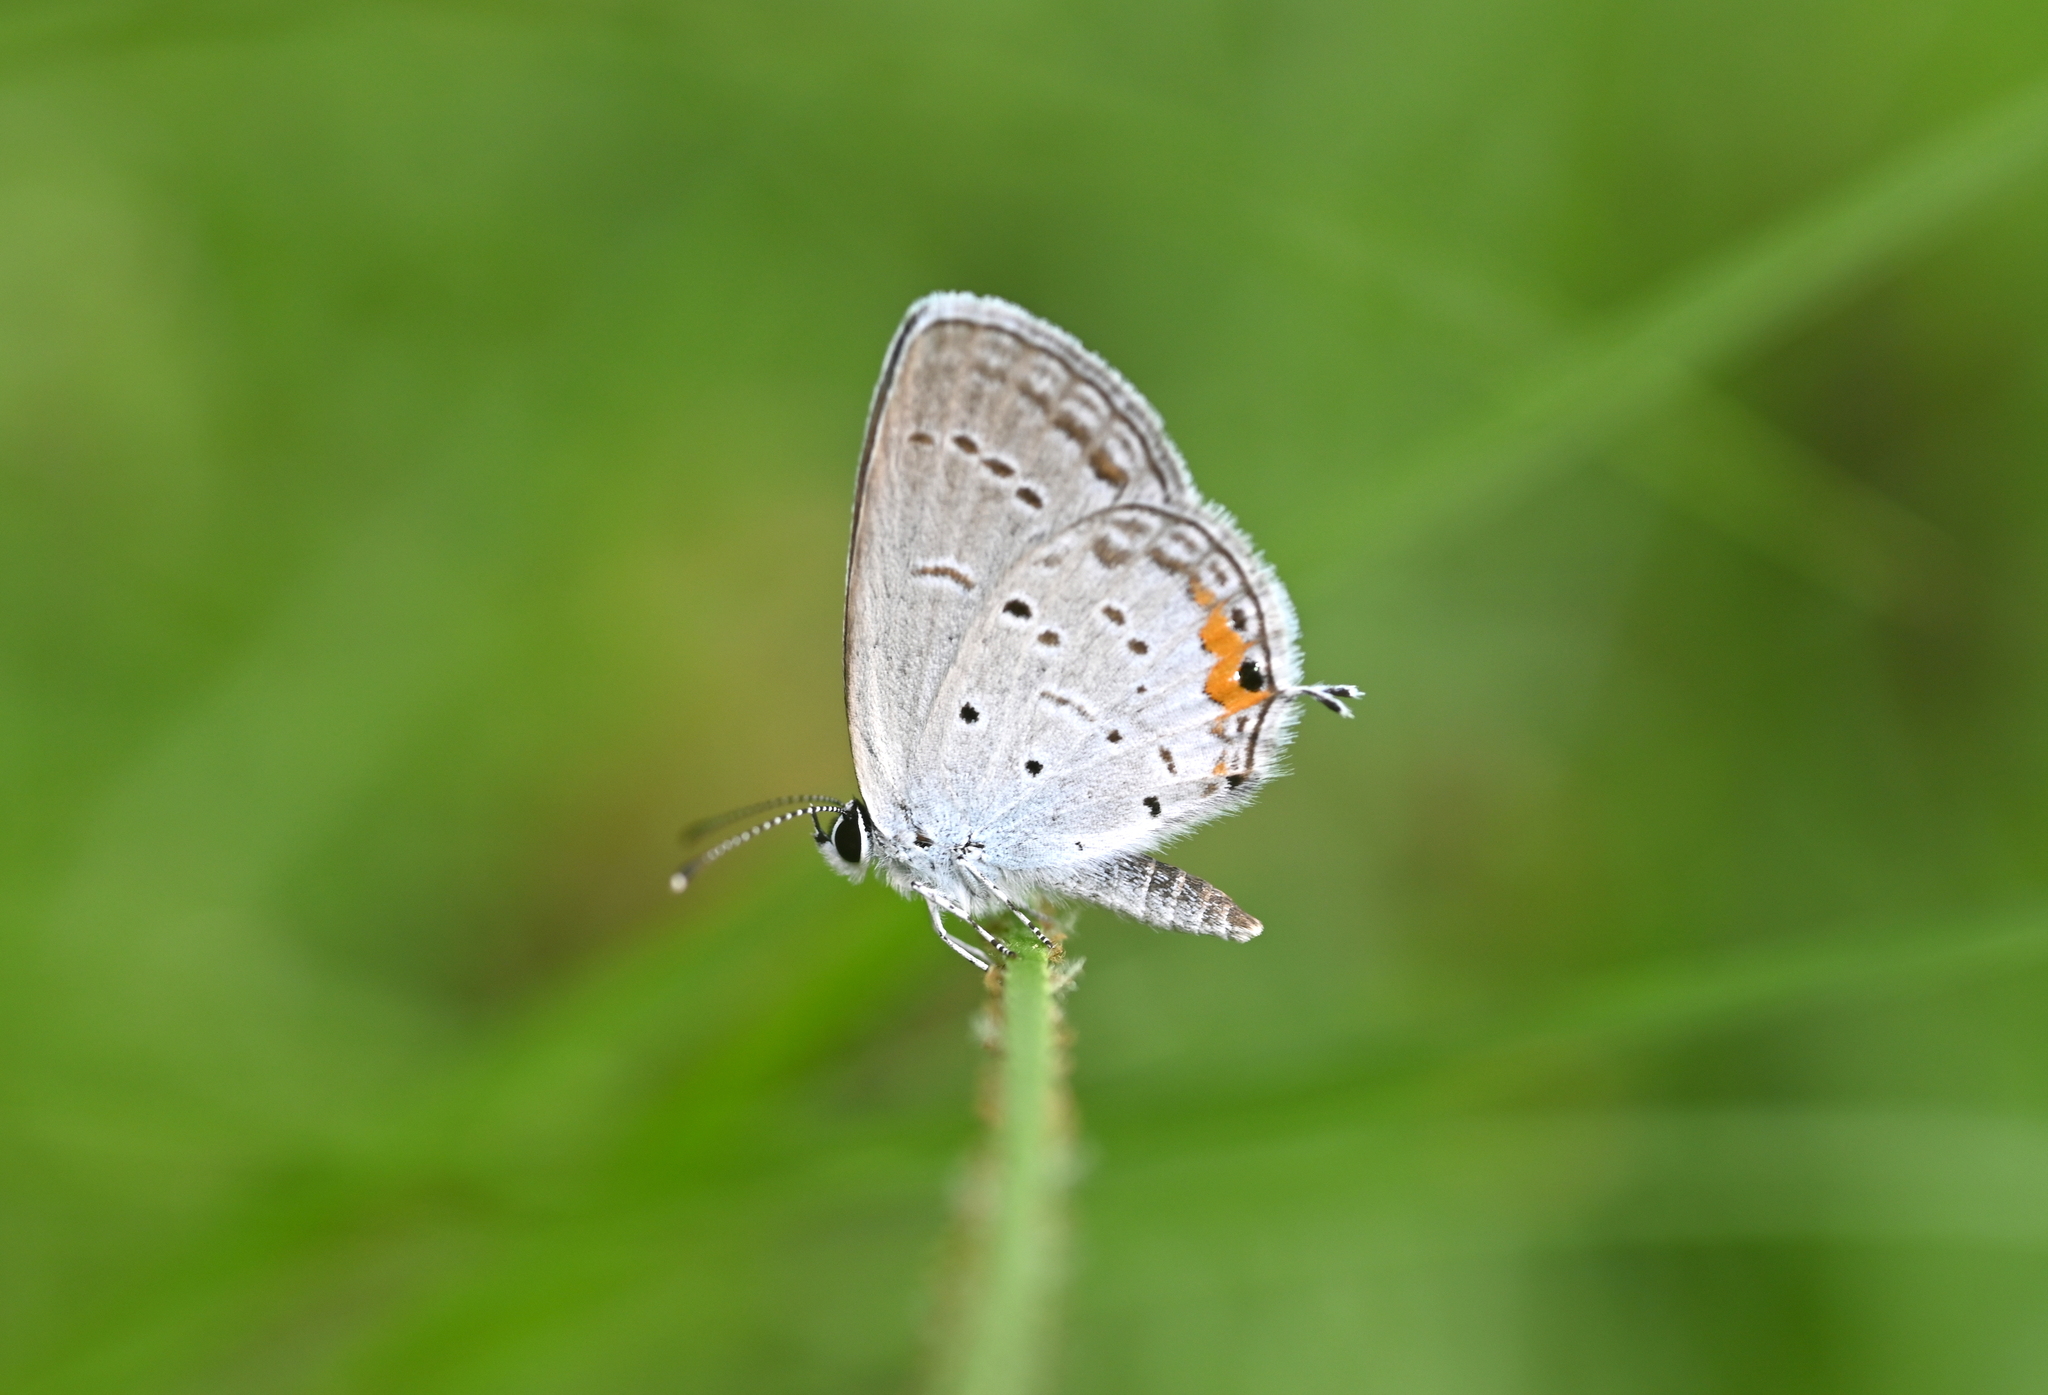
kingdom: Animalia
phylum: Arthropoda
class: Insecta
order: Lepidoptera
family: Lycaenidae
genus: Elkalyce
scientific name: Elkalyce comyntas
